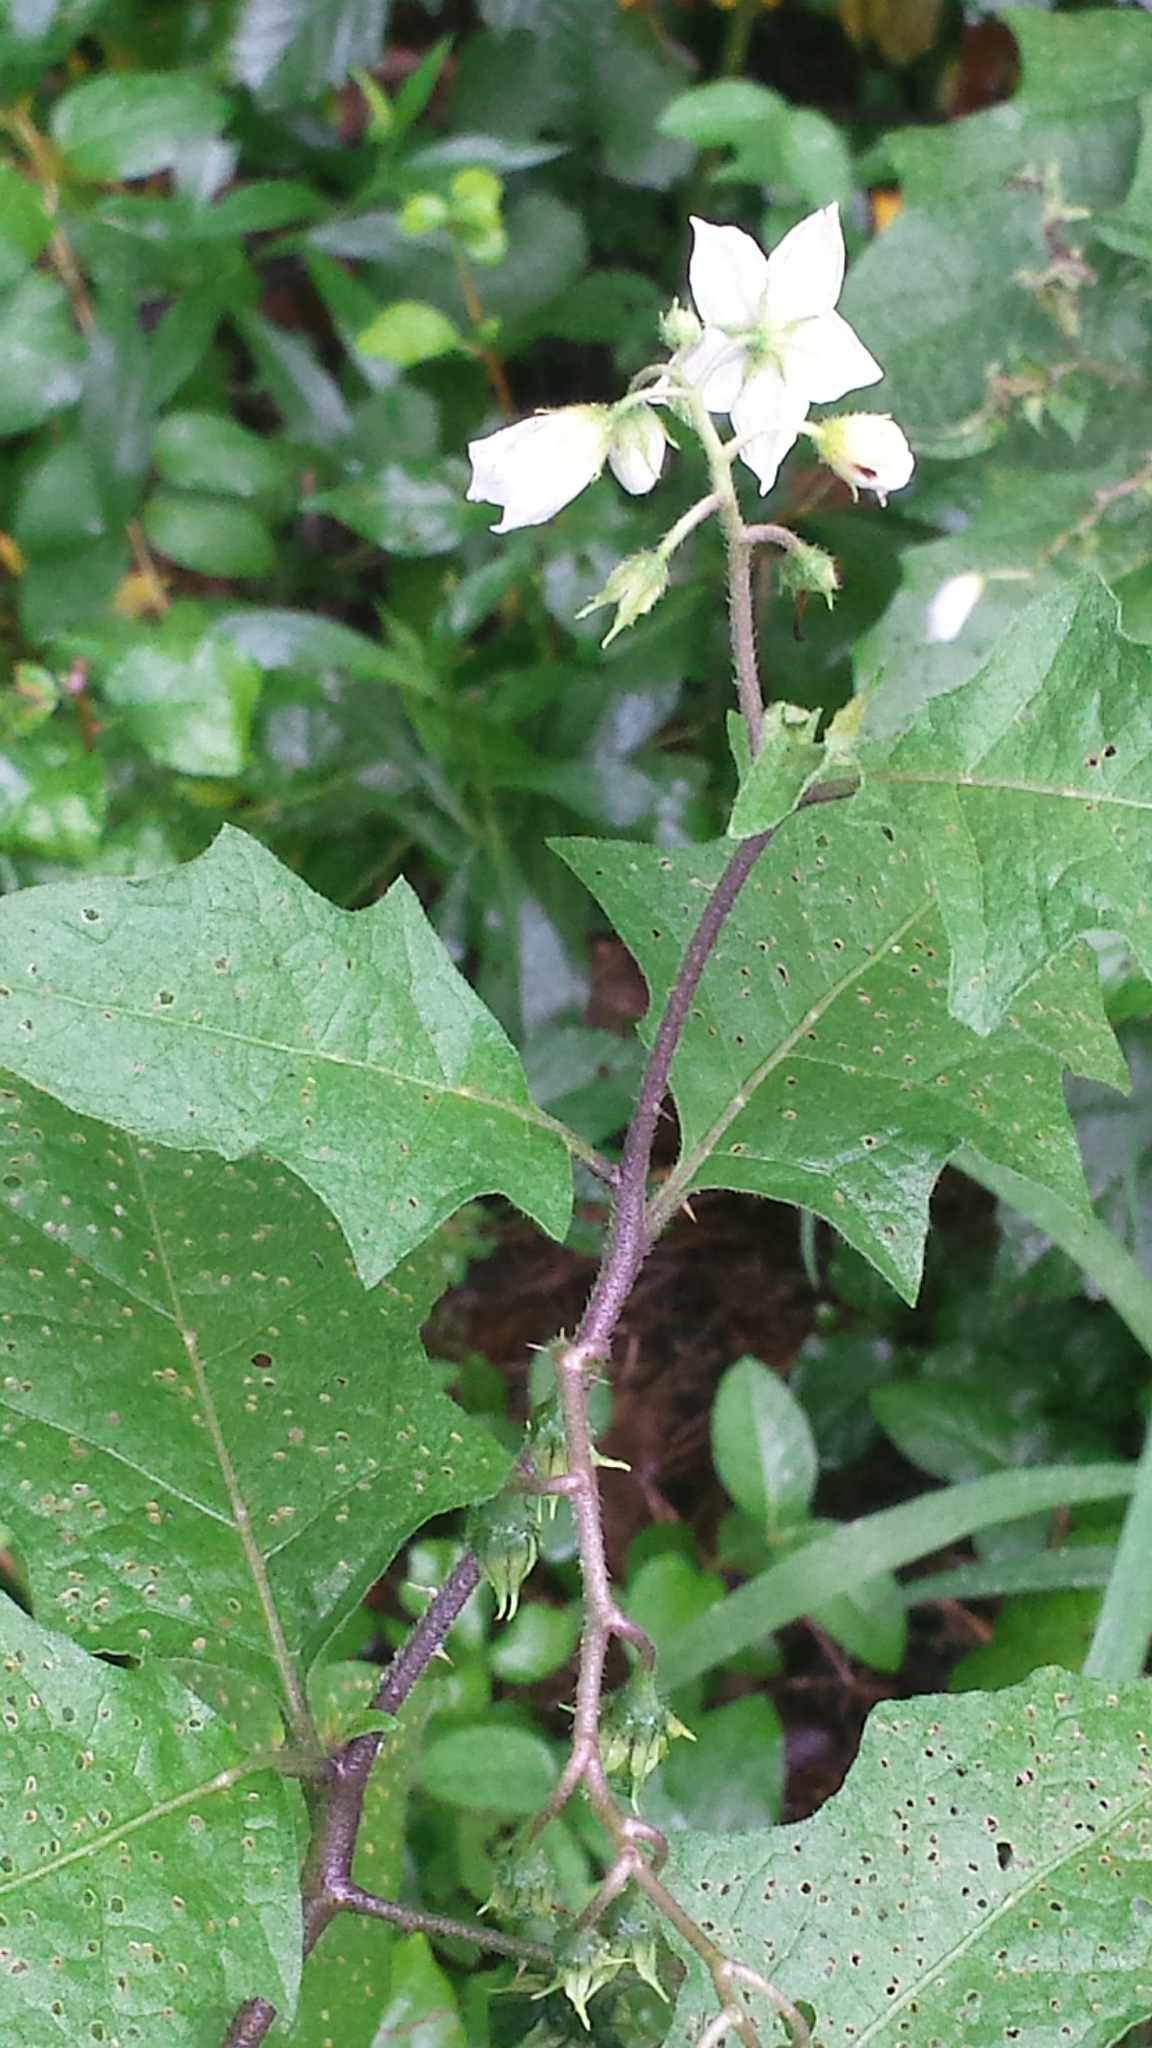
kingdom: Plantae
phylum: Tracheophyta
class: Magnoliopsida
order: Solanales
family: Solanaceae
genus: Solanum
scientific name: Solanum carolinense
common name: Horse-nettle
